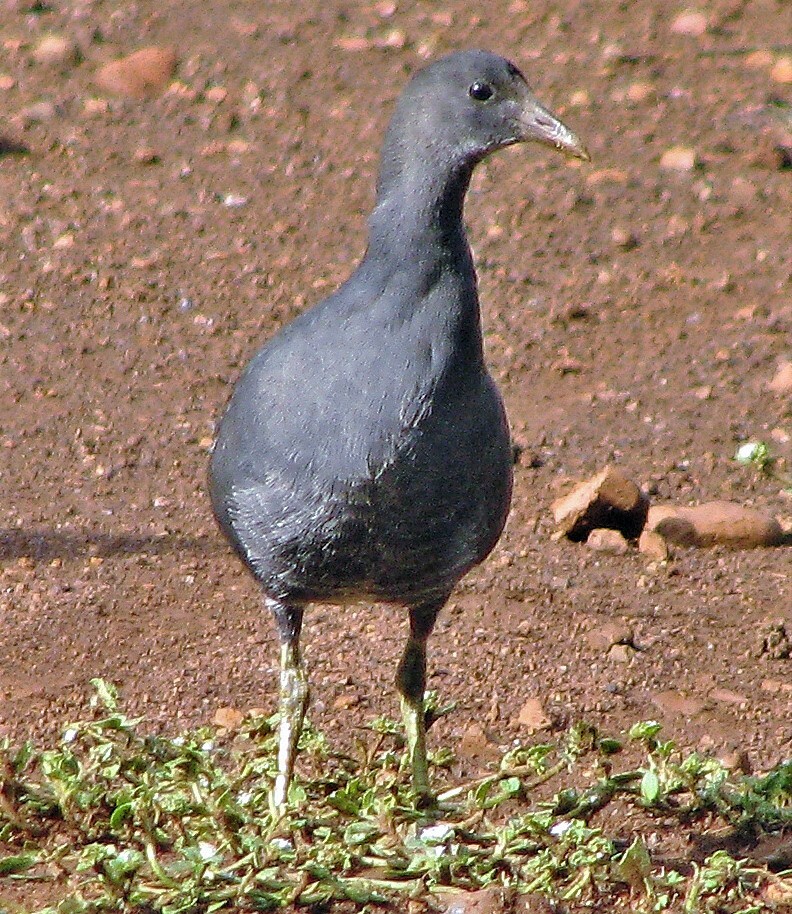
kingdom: Animalia
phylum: Chordata
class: Aves
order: Gruiformes
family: Rallidae
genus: Gallinula
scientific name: Gallinula chloropus
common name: Common moorhen
